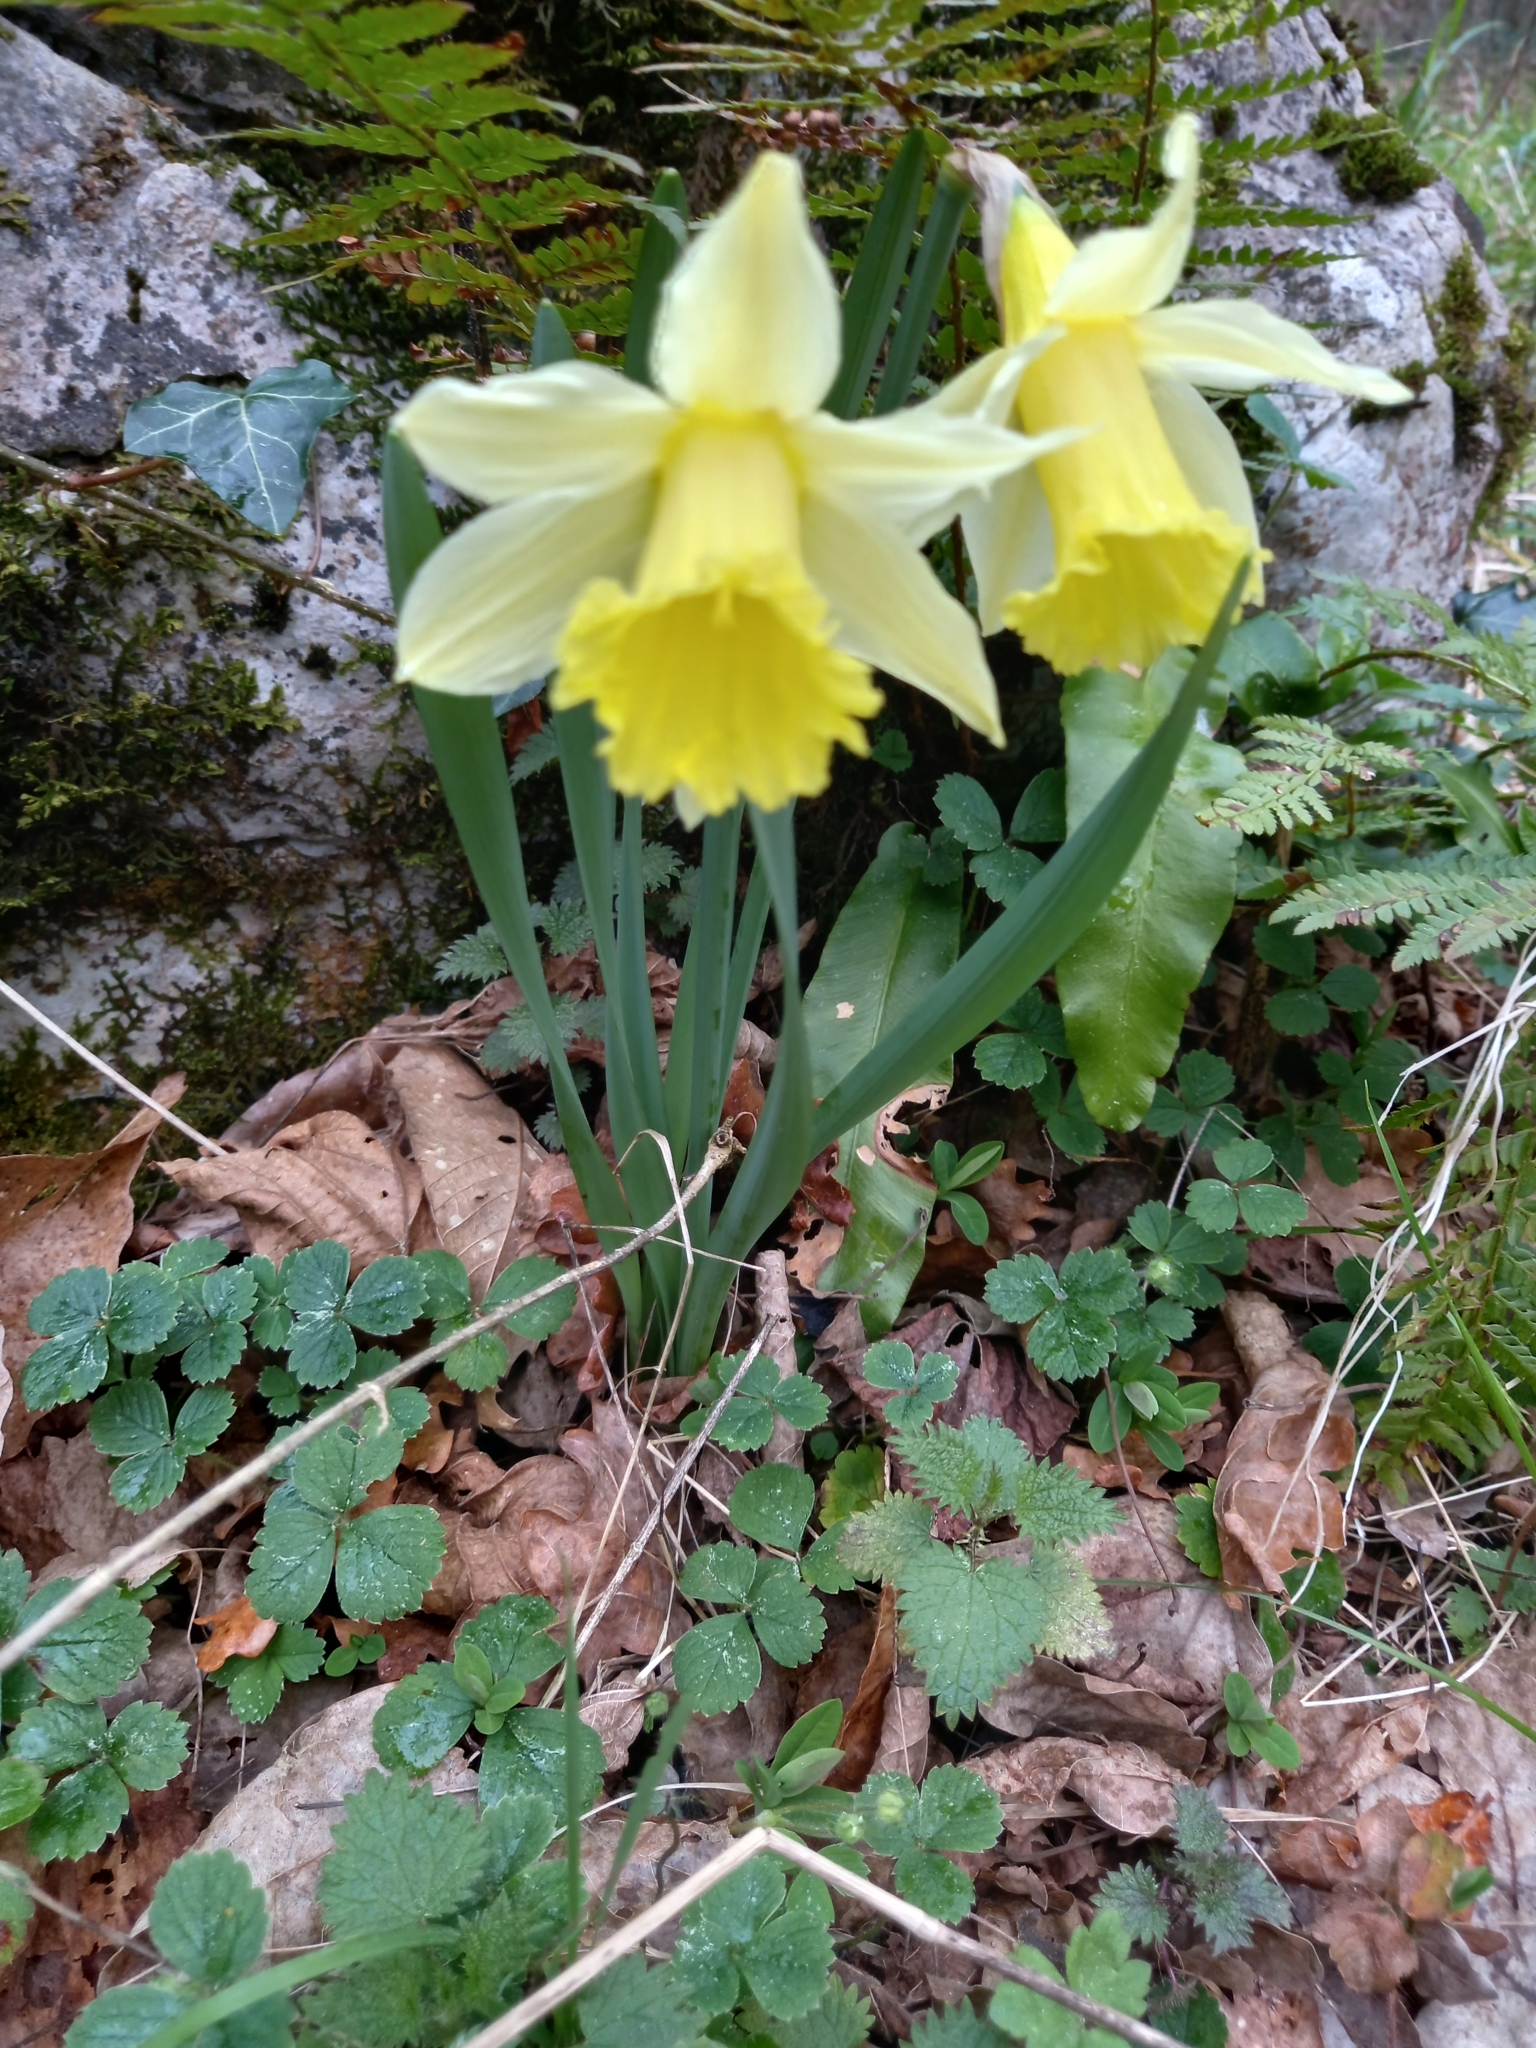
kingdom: Plantae
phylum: Tracheophyta
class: Liliopsida
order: Asparagales
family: Amaryllidaceae
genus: Narcissus
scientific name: Narcissus pseudonarcissus
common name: Daffodil
